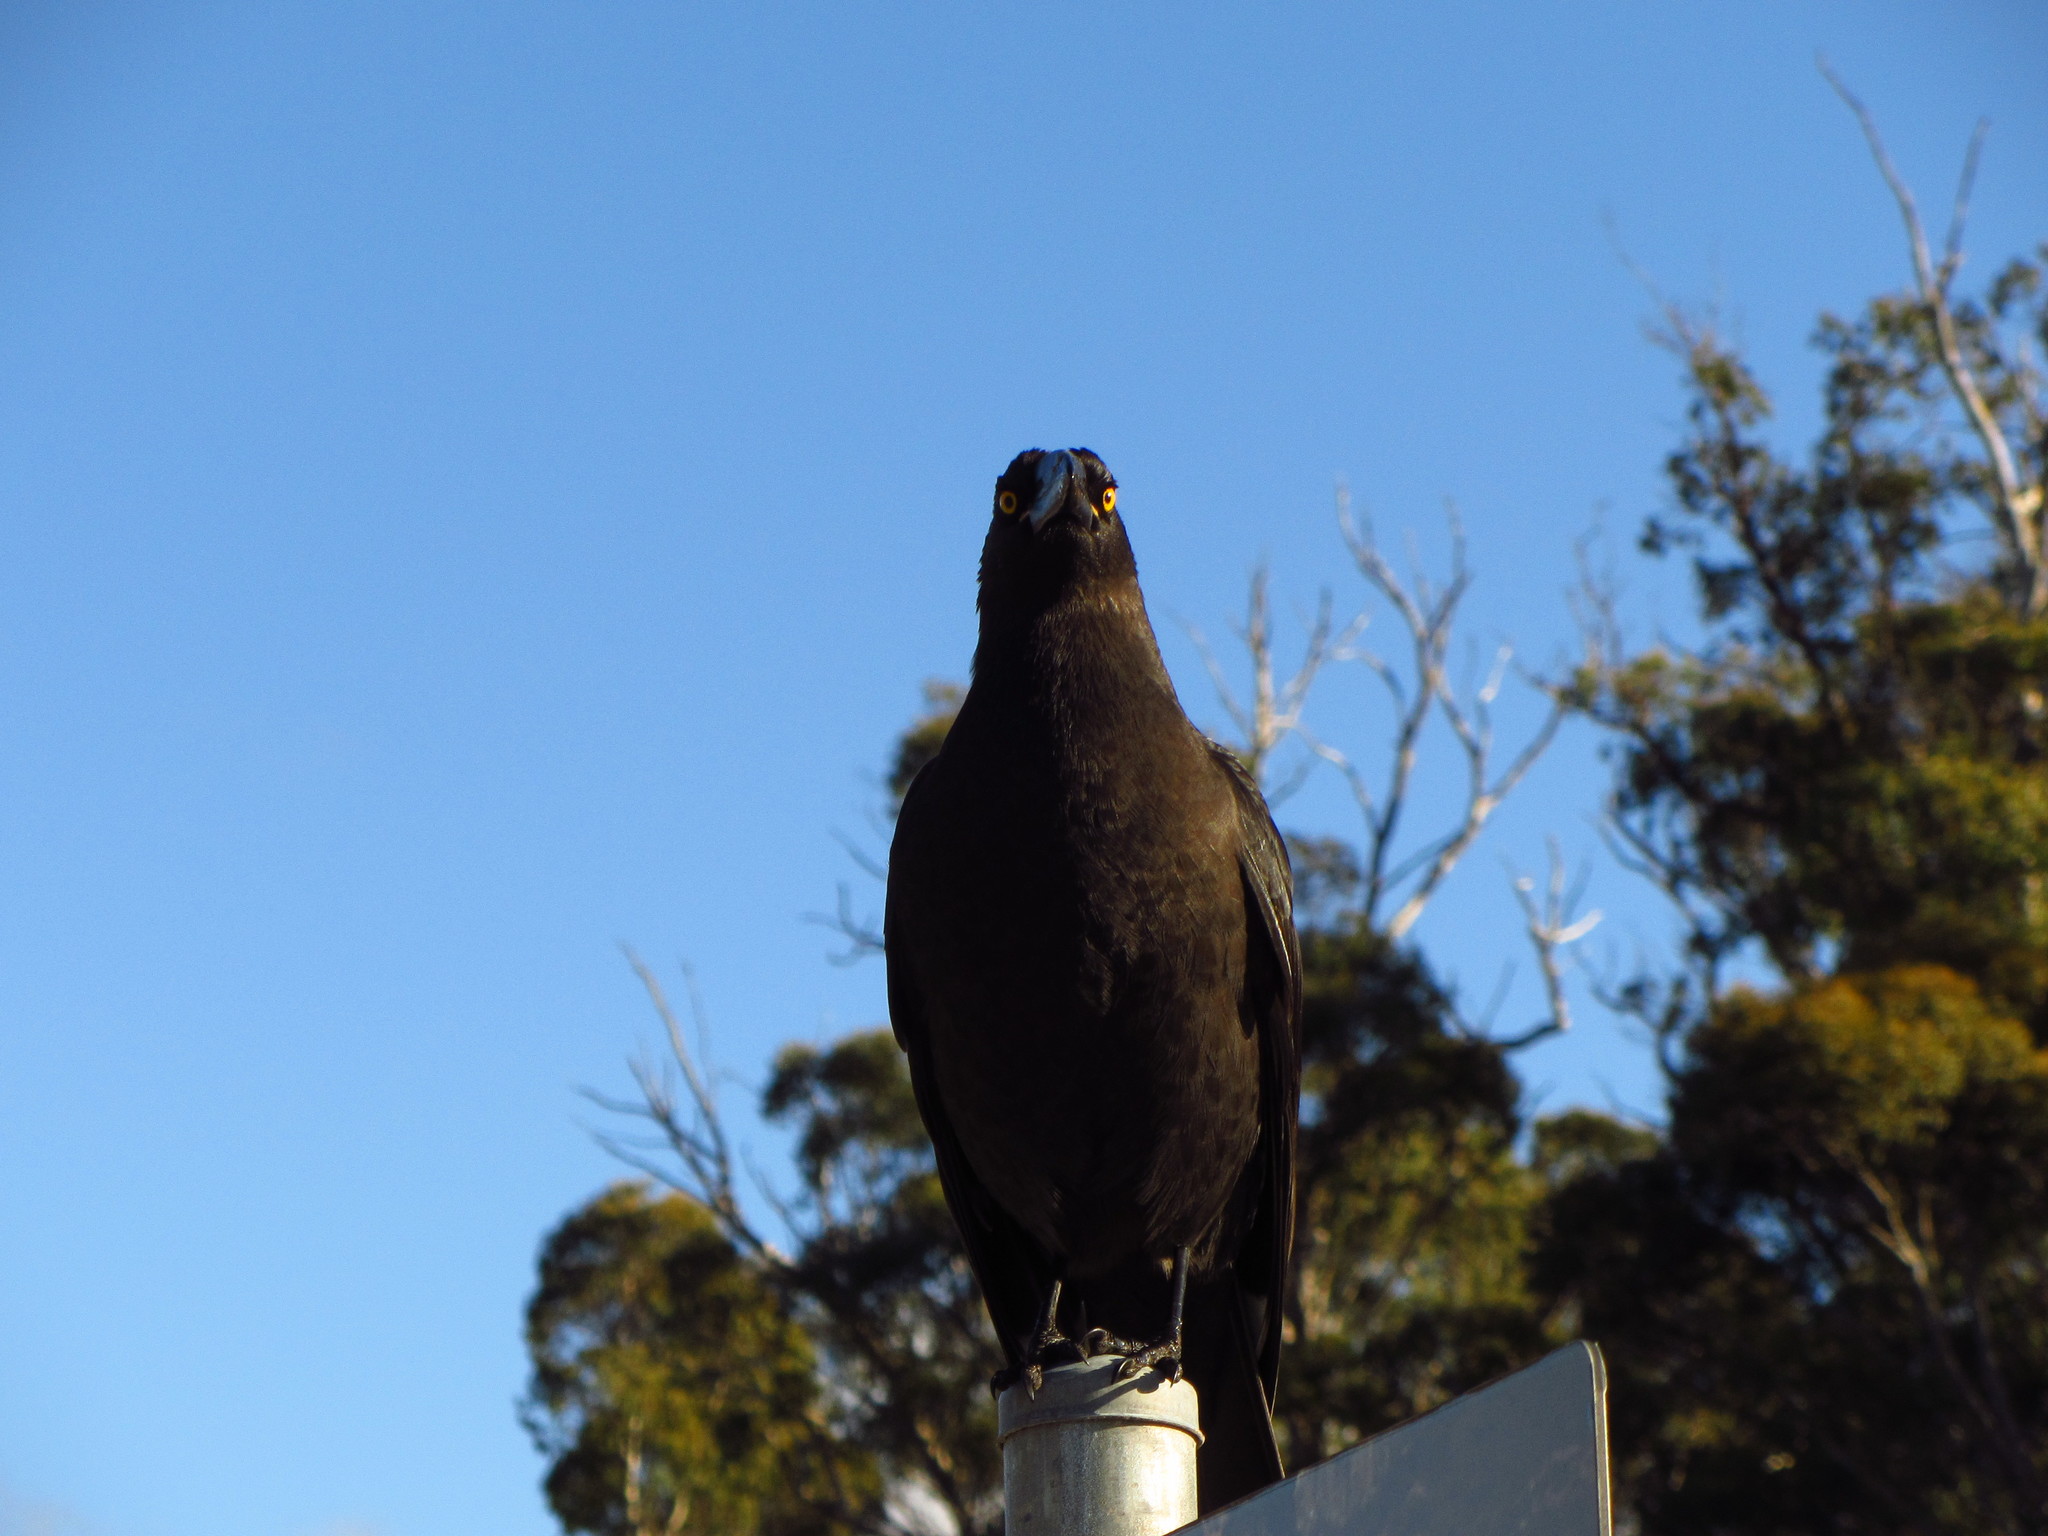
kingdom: Animalia
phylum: Chordata
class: Aves
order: Passeriformes
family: Cracticidae
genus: Strepera
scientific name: Strepera fuliginosa
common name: Black currawong
